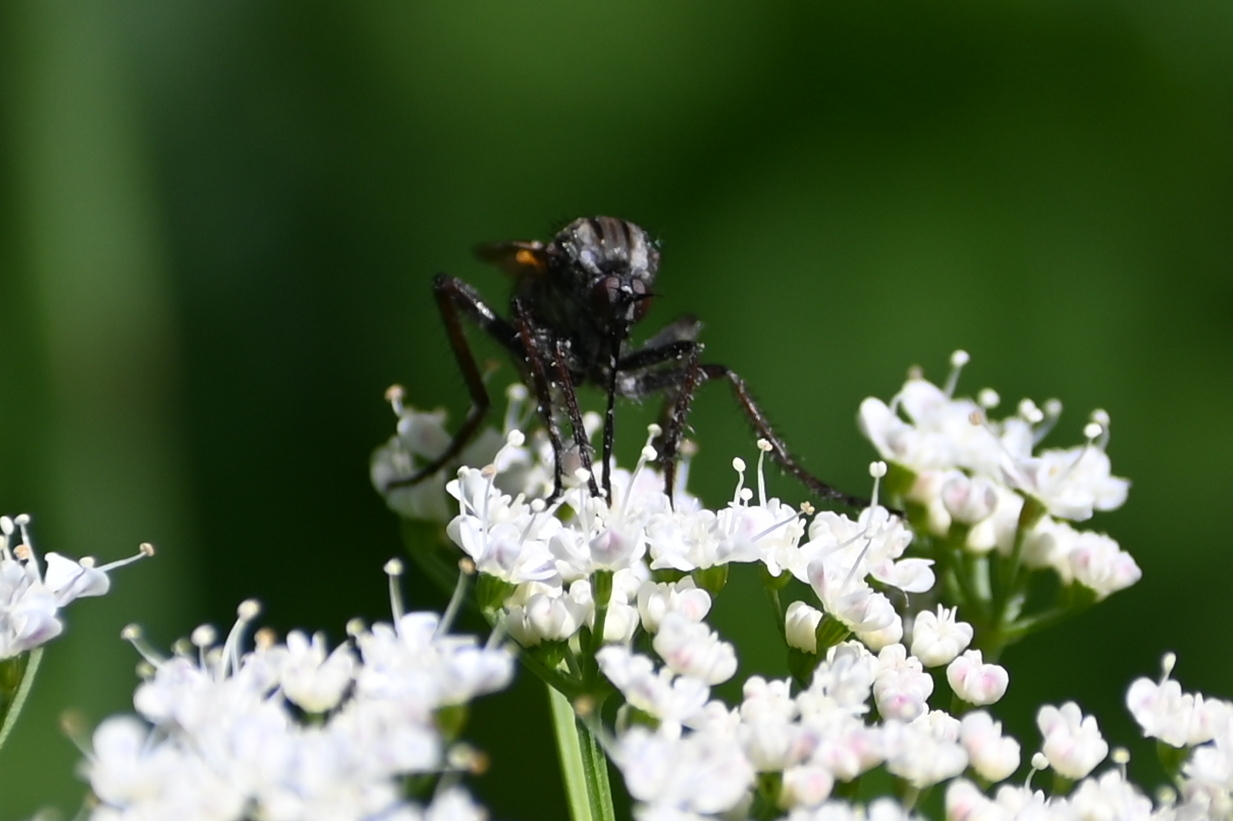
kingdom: Animalia
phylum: Arthropoda
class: Insecta
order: Diptera
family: Empididae
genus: Empis
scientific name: Empis tessellata
